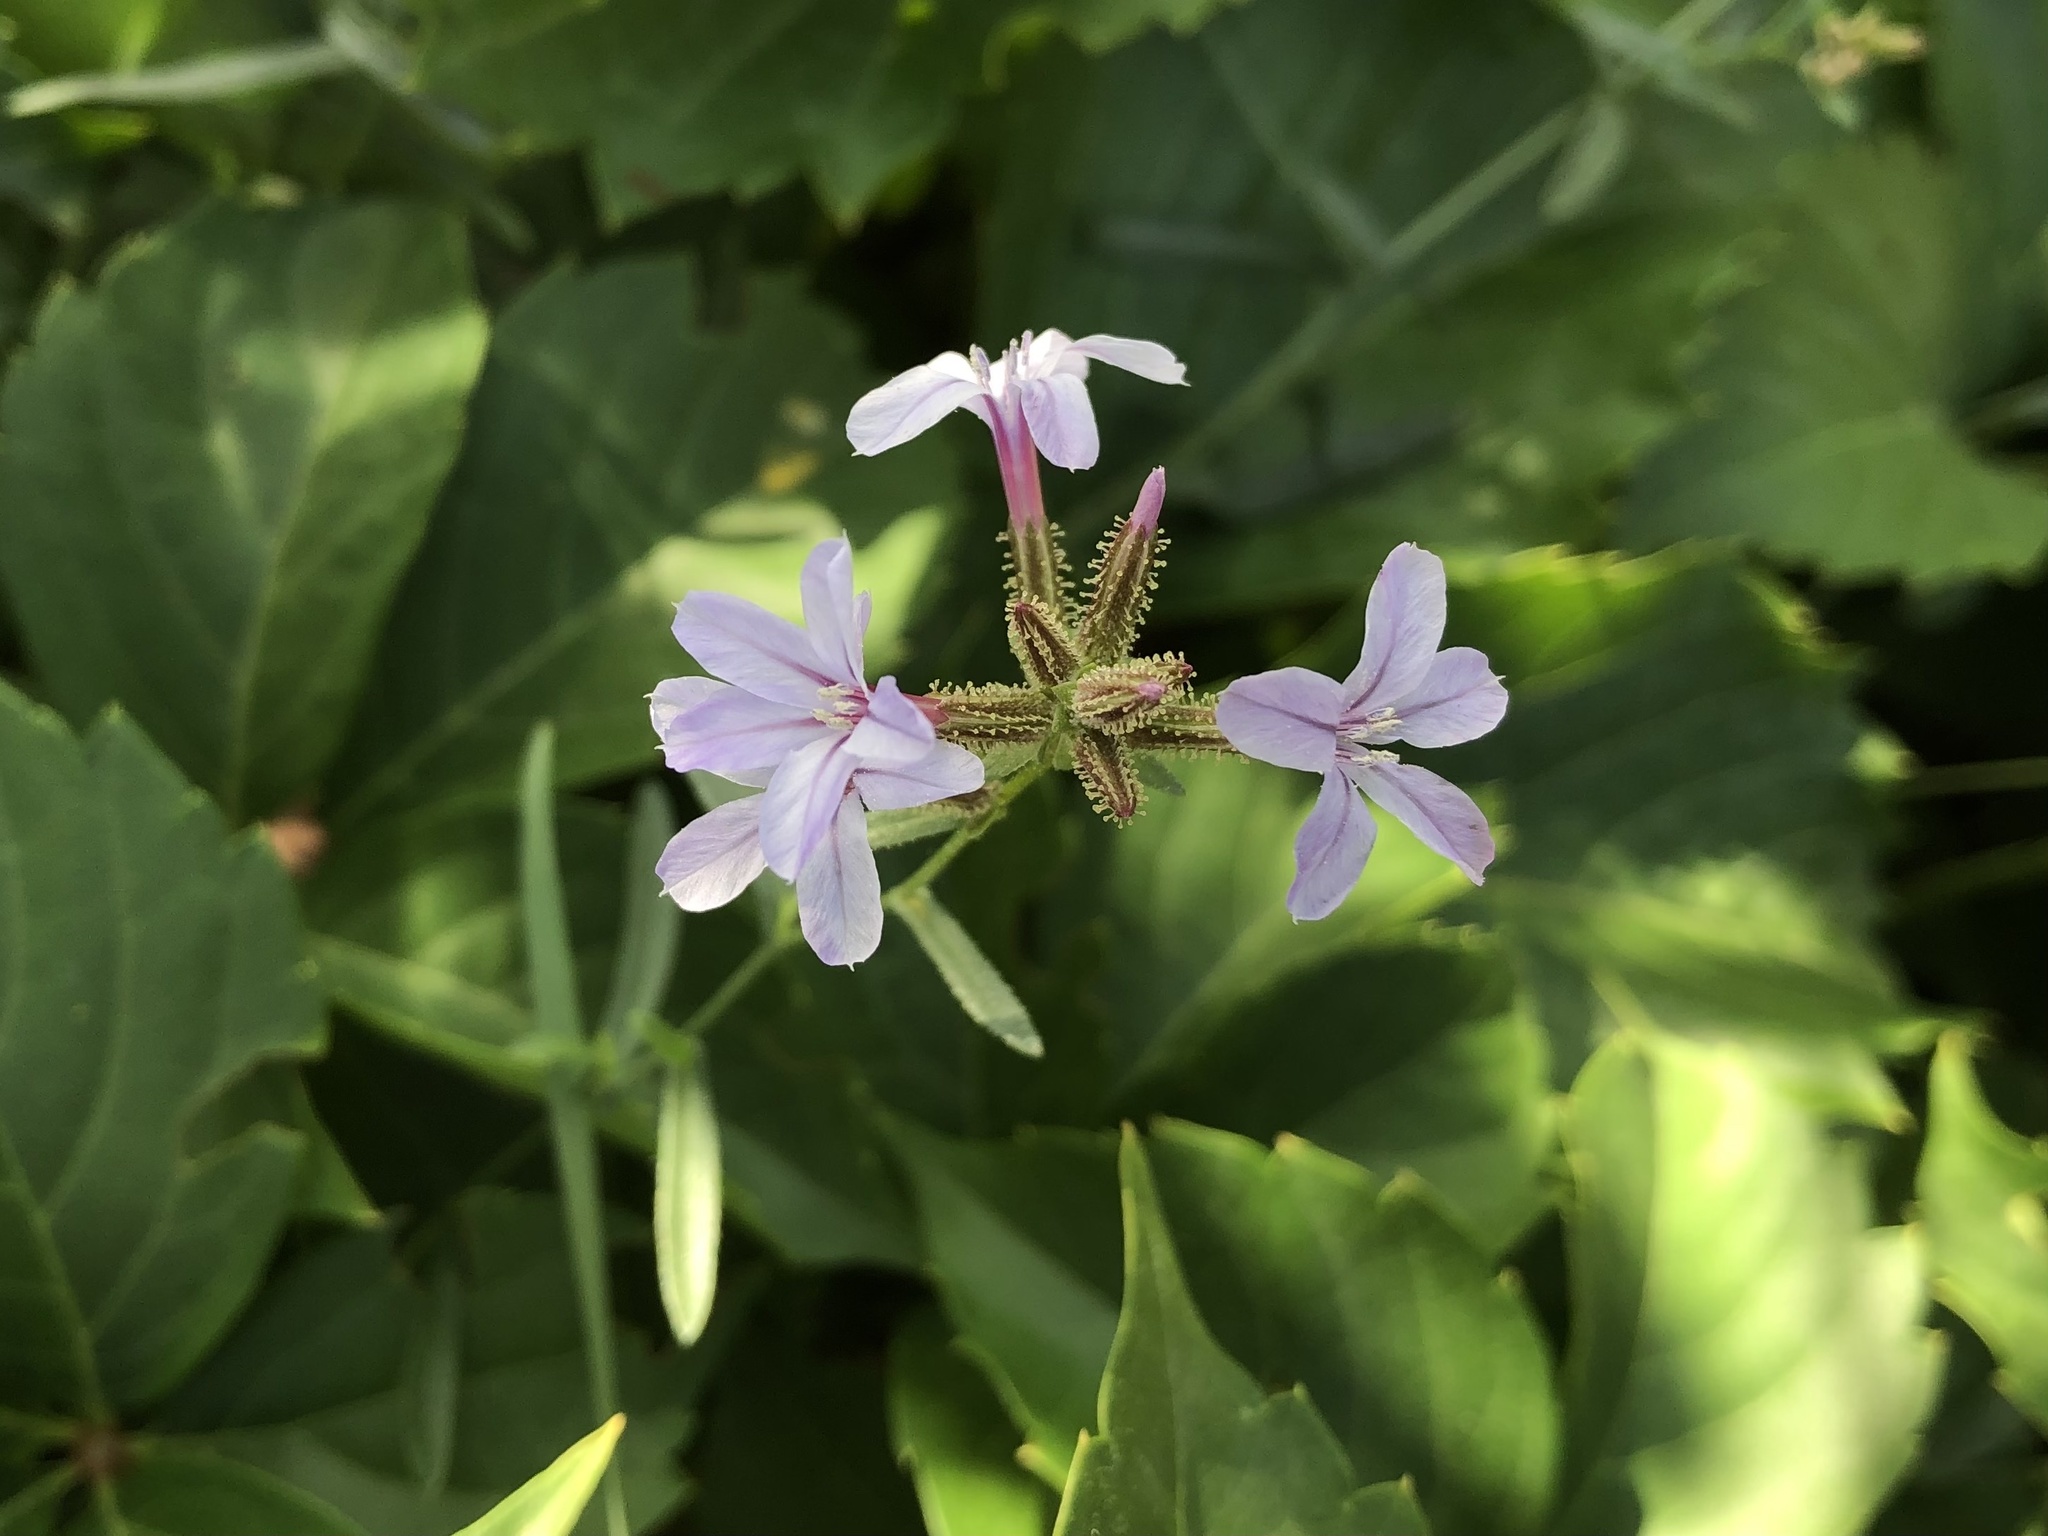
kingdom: Plantae
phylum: Tracheophyta
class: Magnoliopsida
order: Caryophyllales
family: Plumbaginaceae
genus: Plumbago
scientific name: Plumbago europaea
